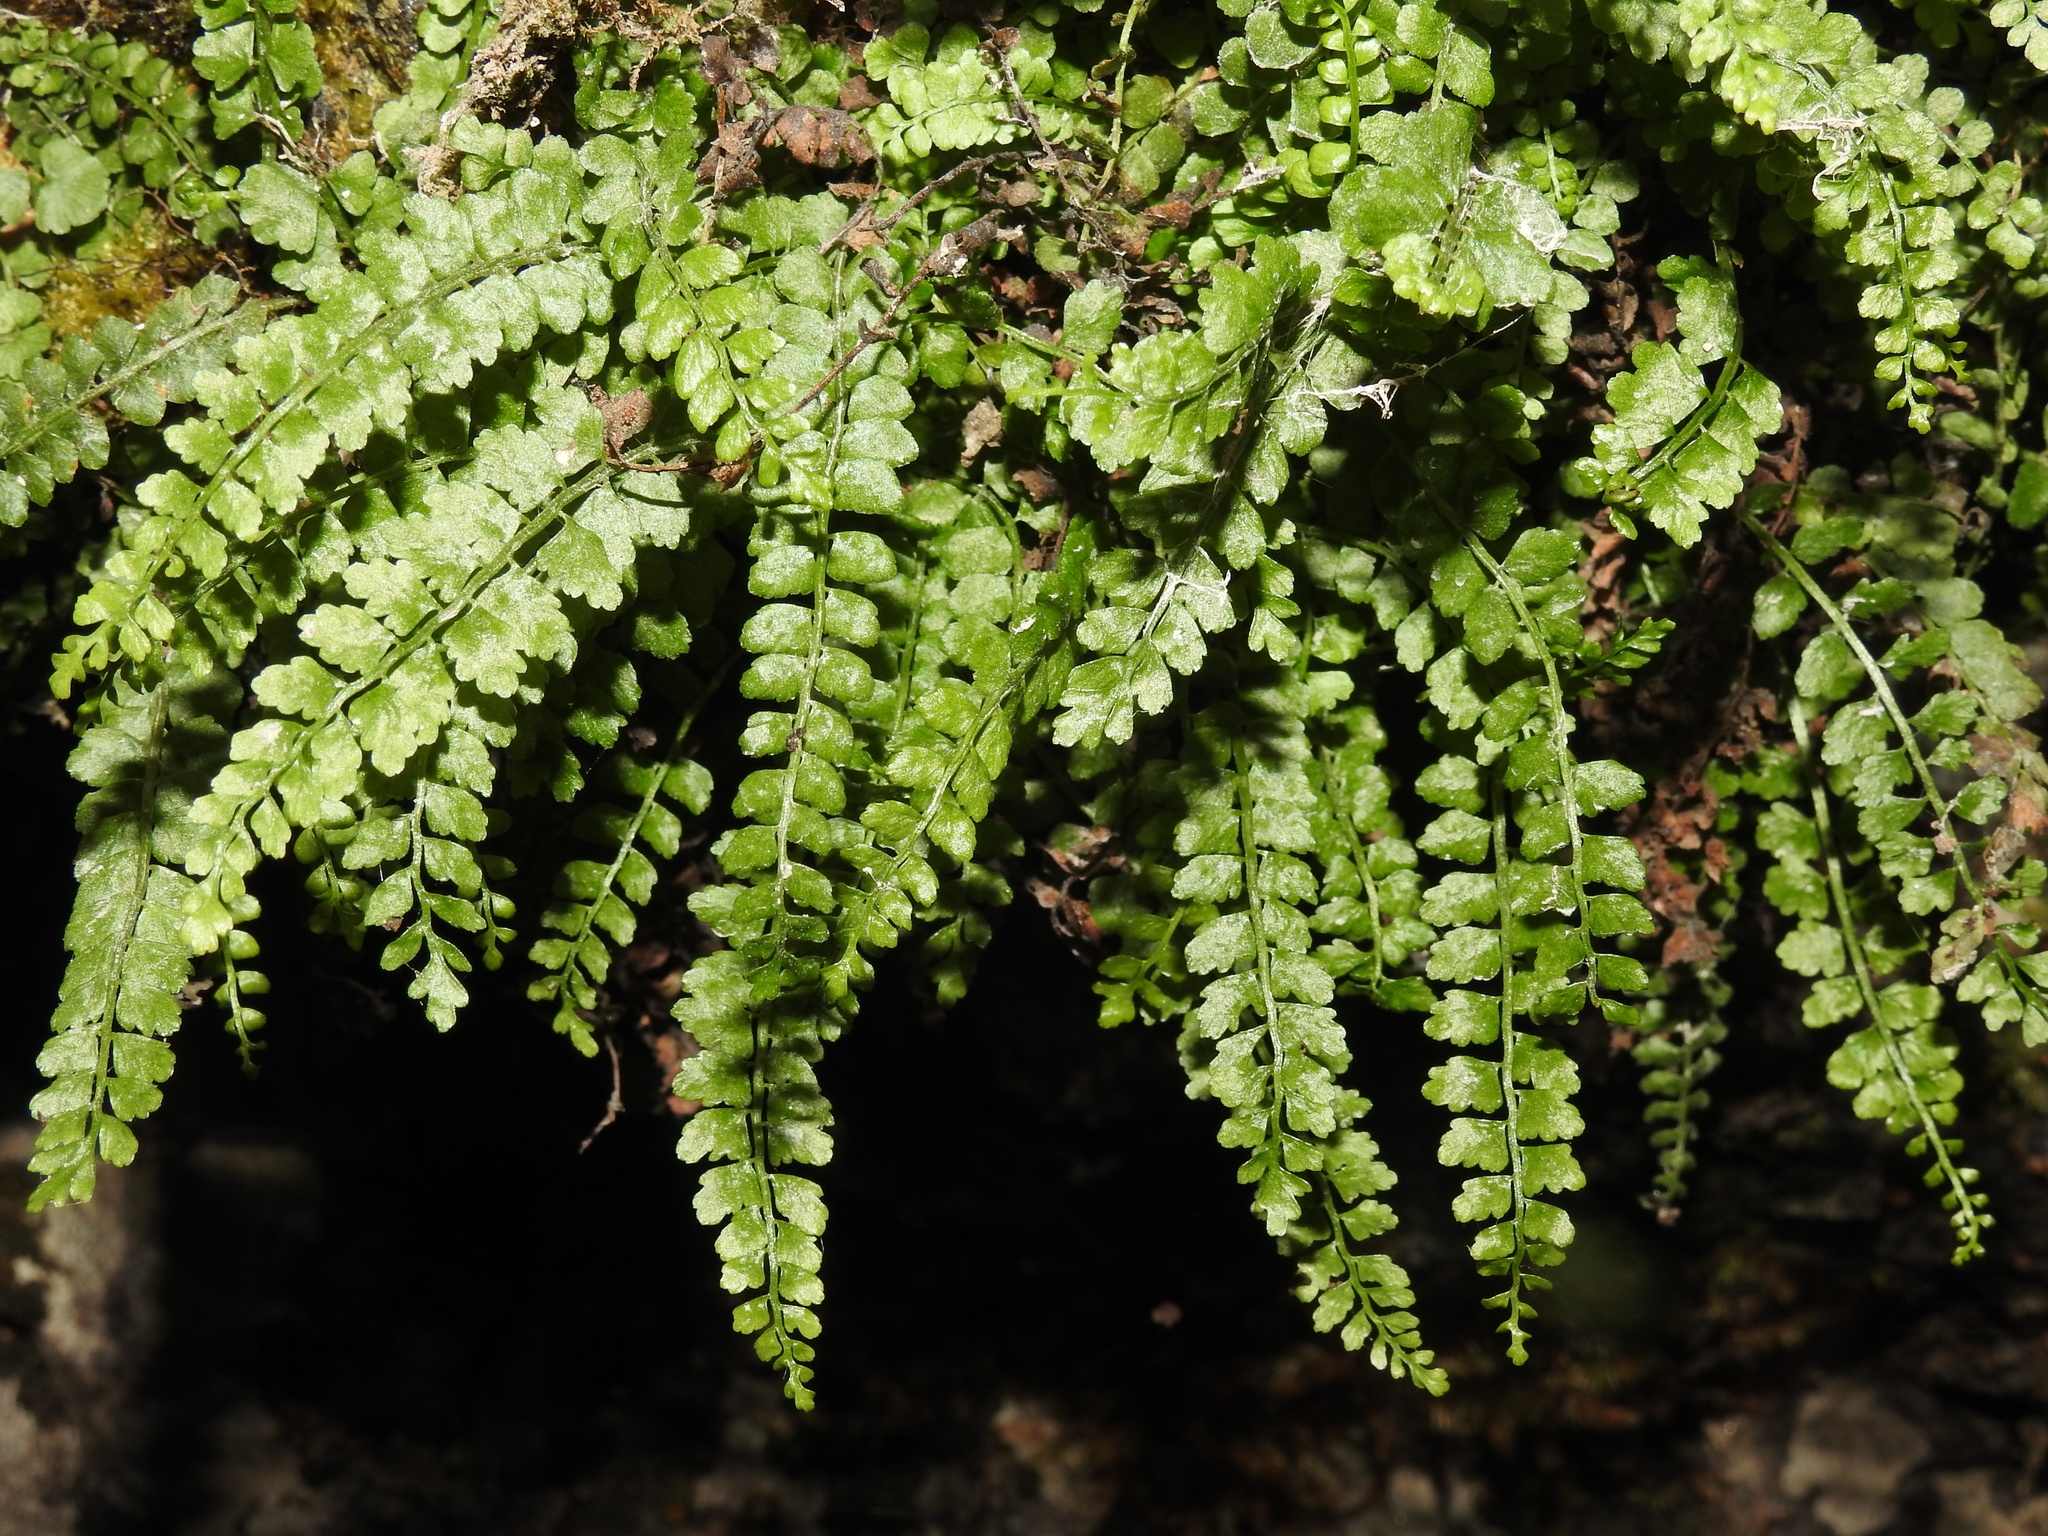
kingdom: Plantae
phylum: Tracheophyta
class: Polypodiopsida
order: Polypodiales
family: Aspleniaceae
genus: Asplenium
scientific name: Asplenium viride
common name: Green spleenwort
